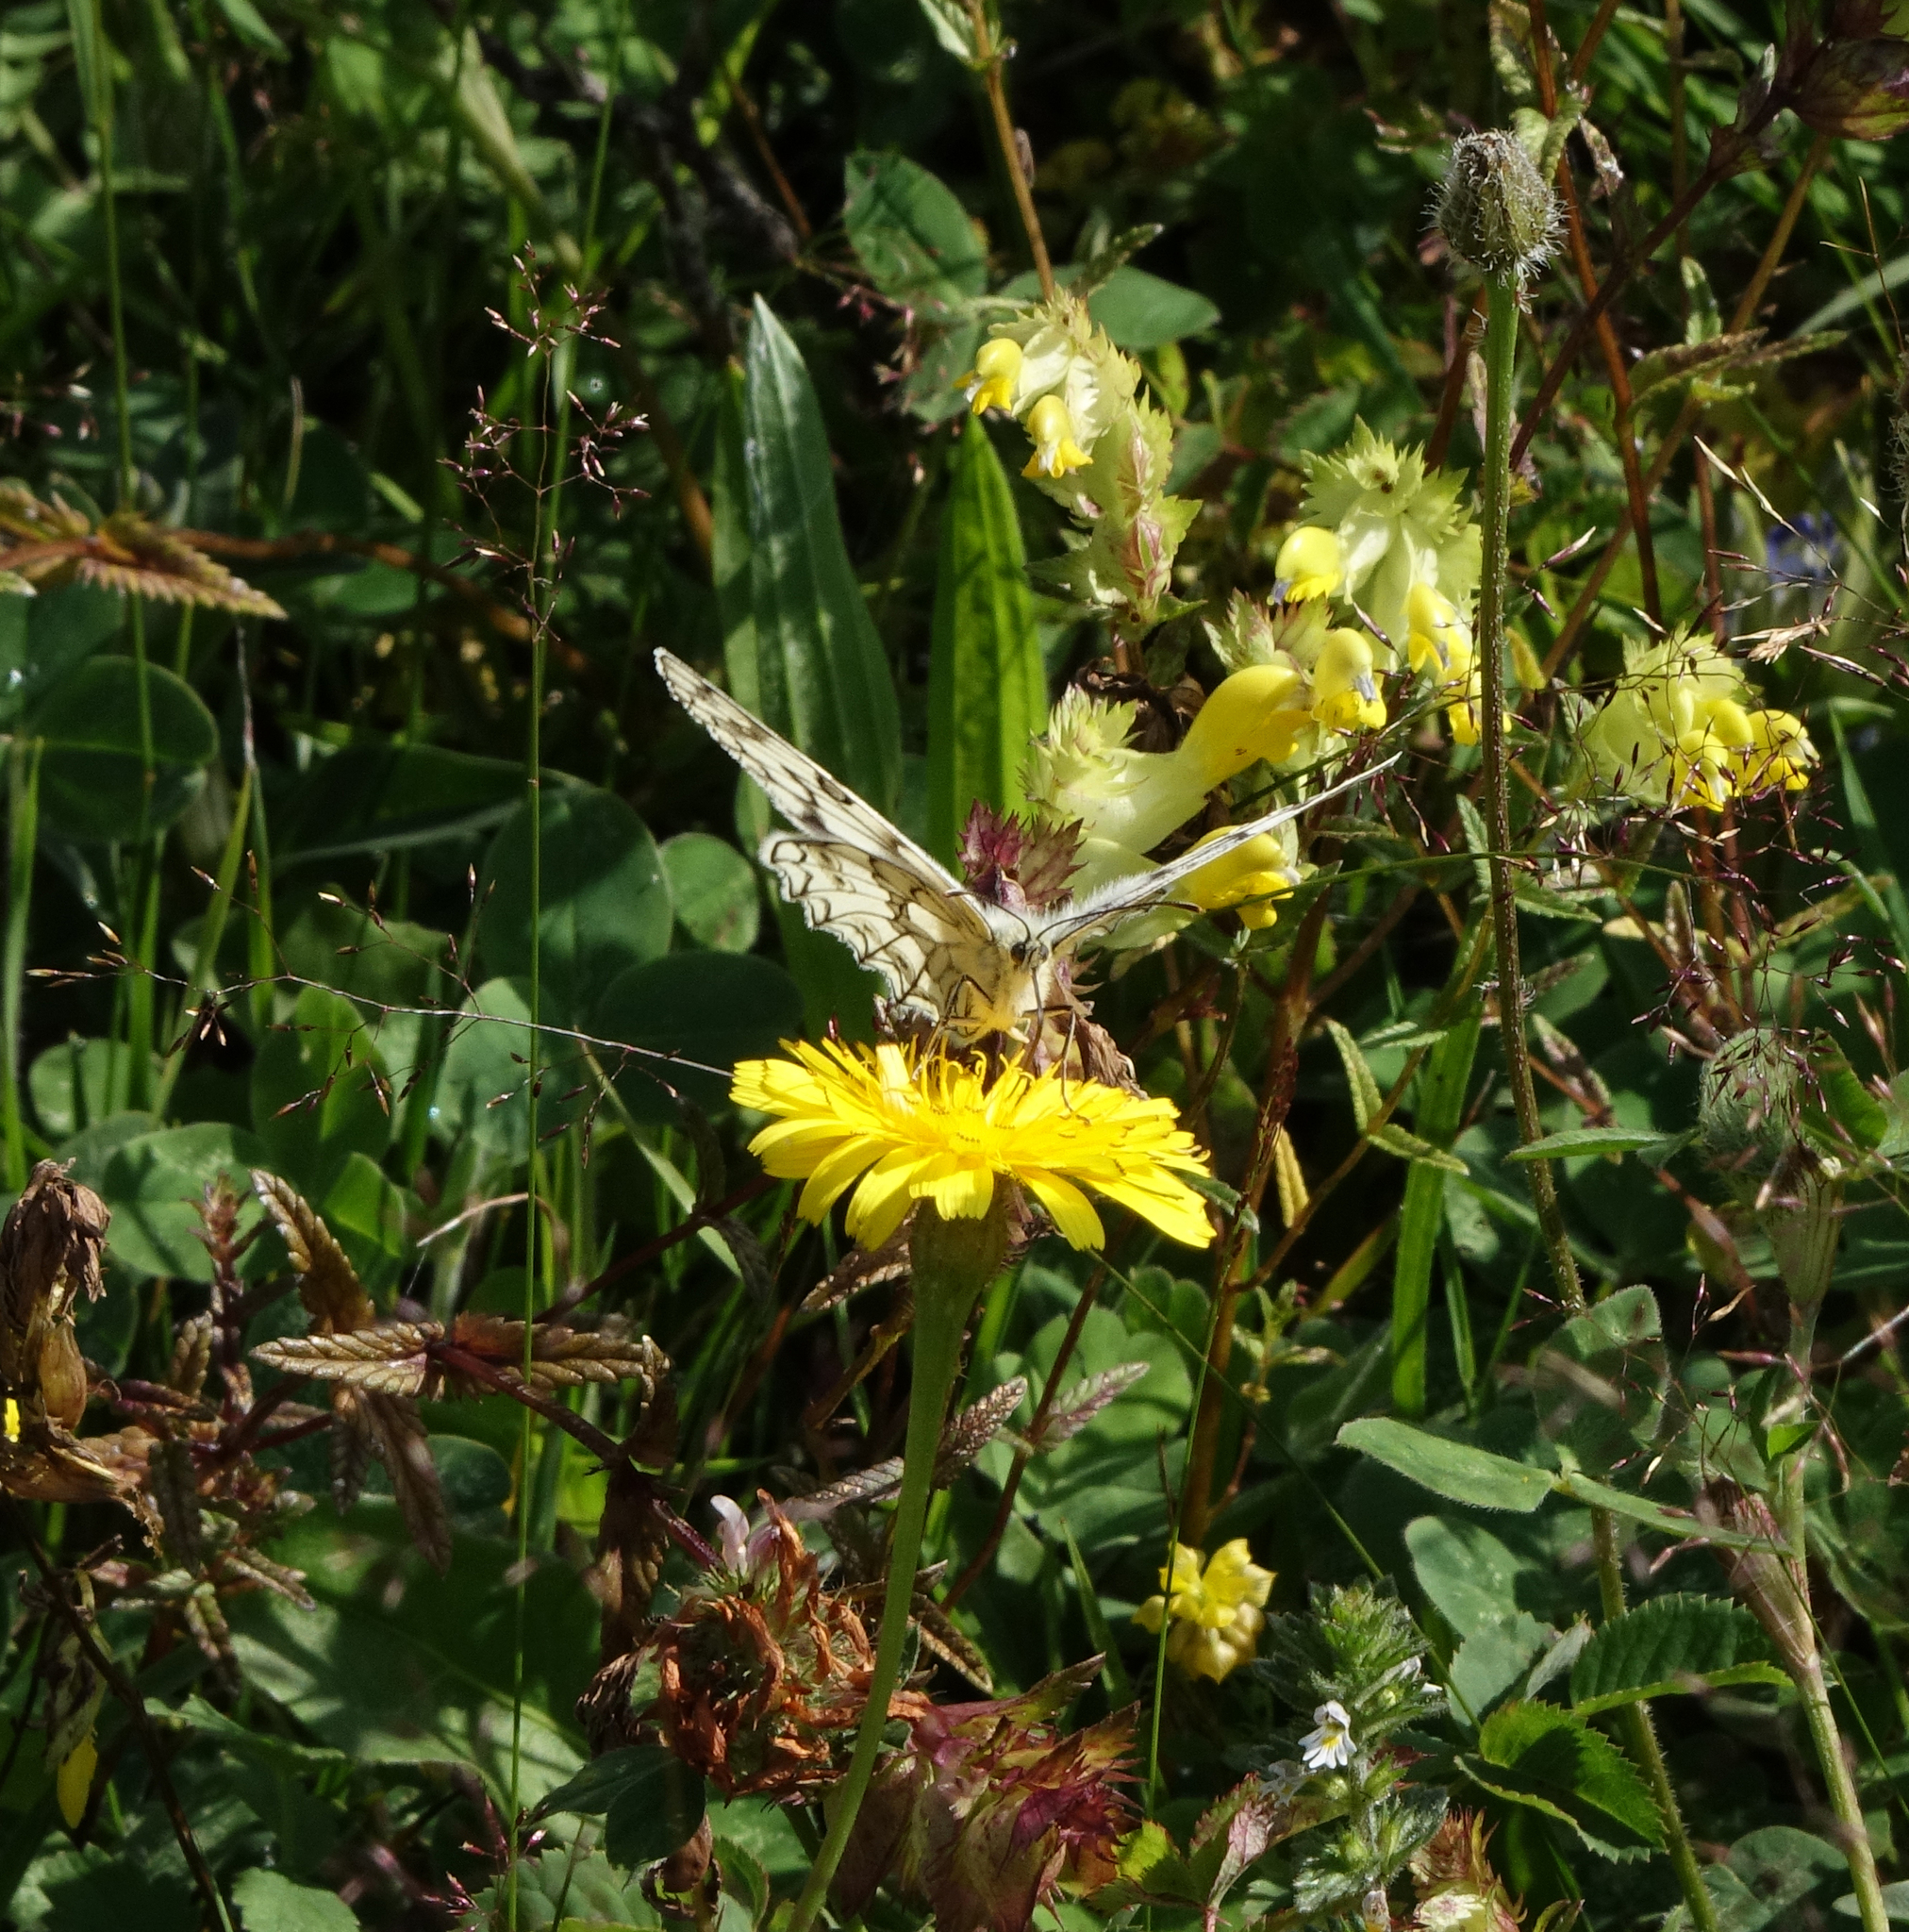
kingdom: Animalia
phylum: Arthropoda
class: Insecta
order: Lepidoptera
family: Nymphalidae
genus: Melanargia
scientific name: Melanargia japygia
